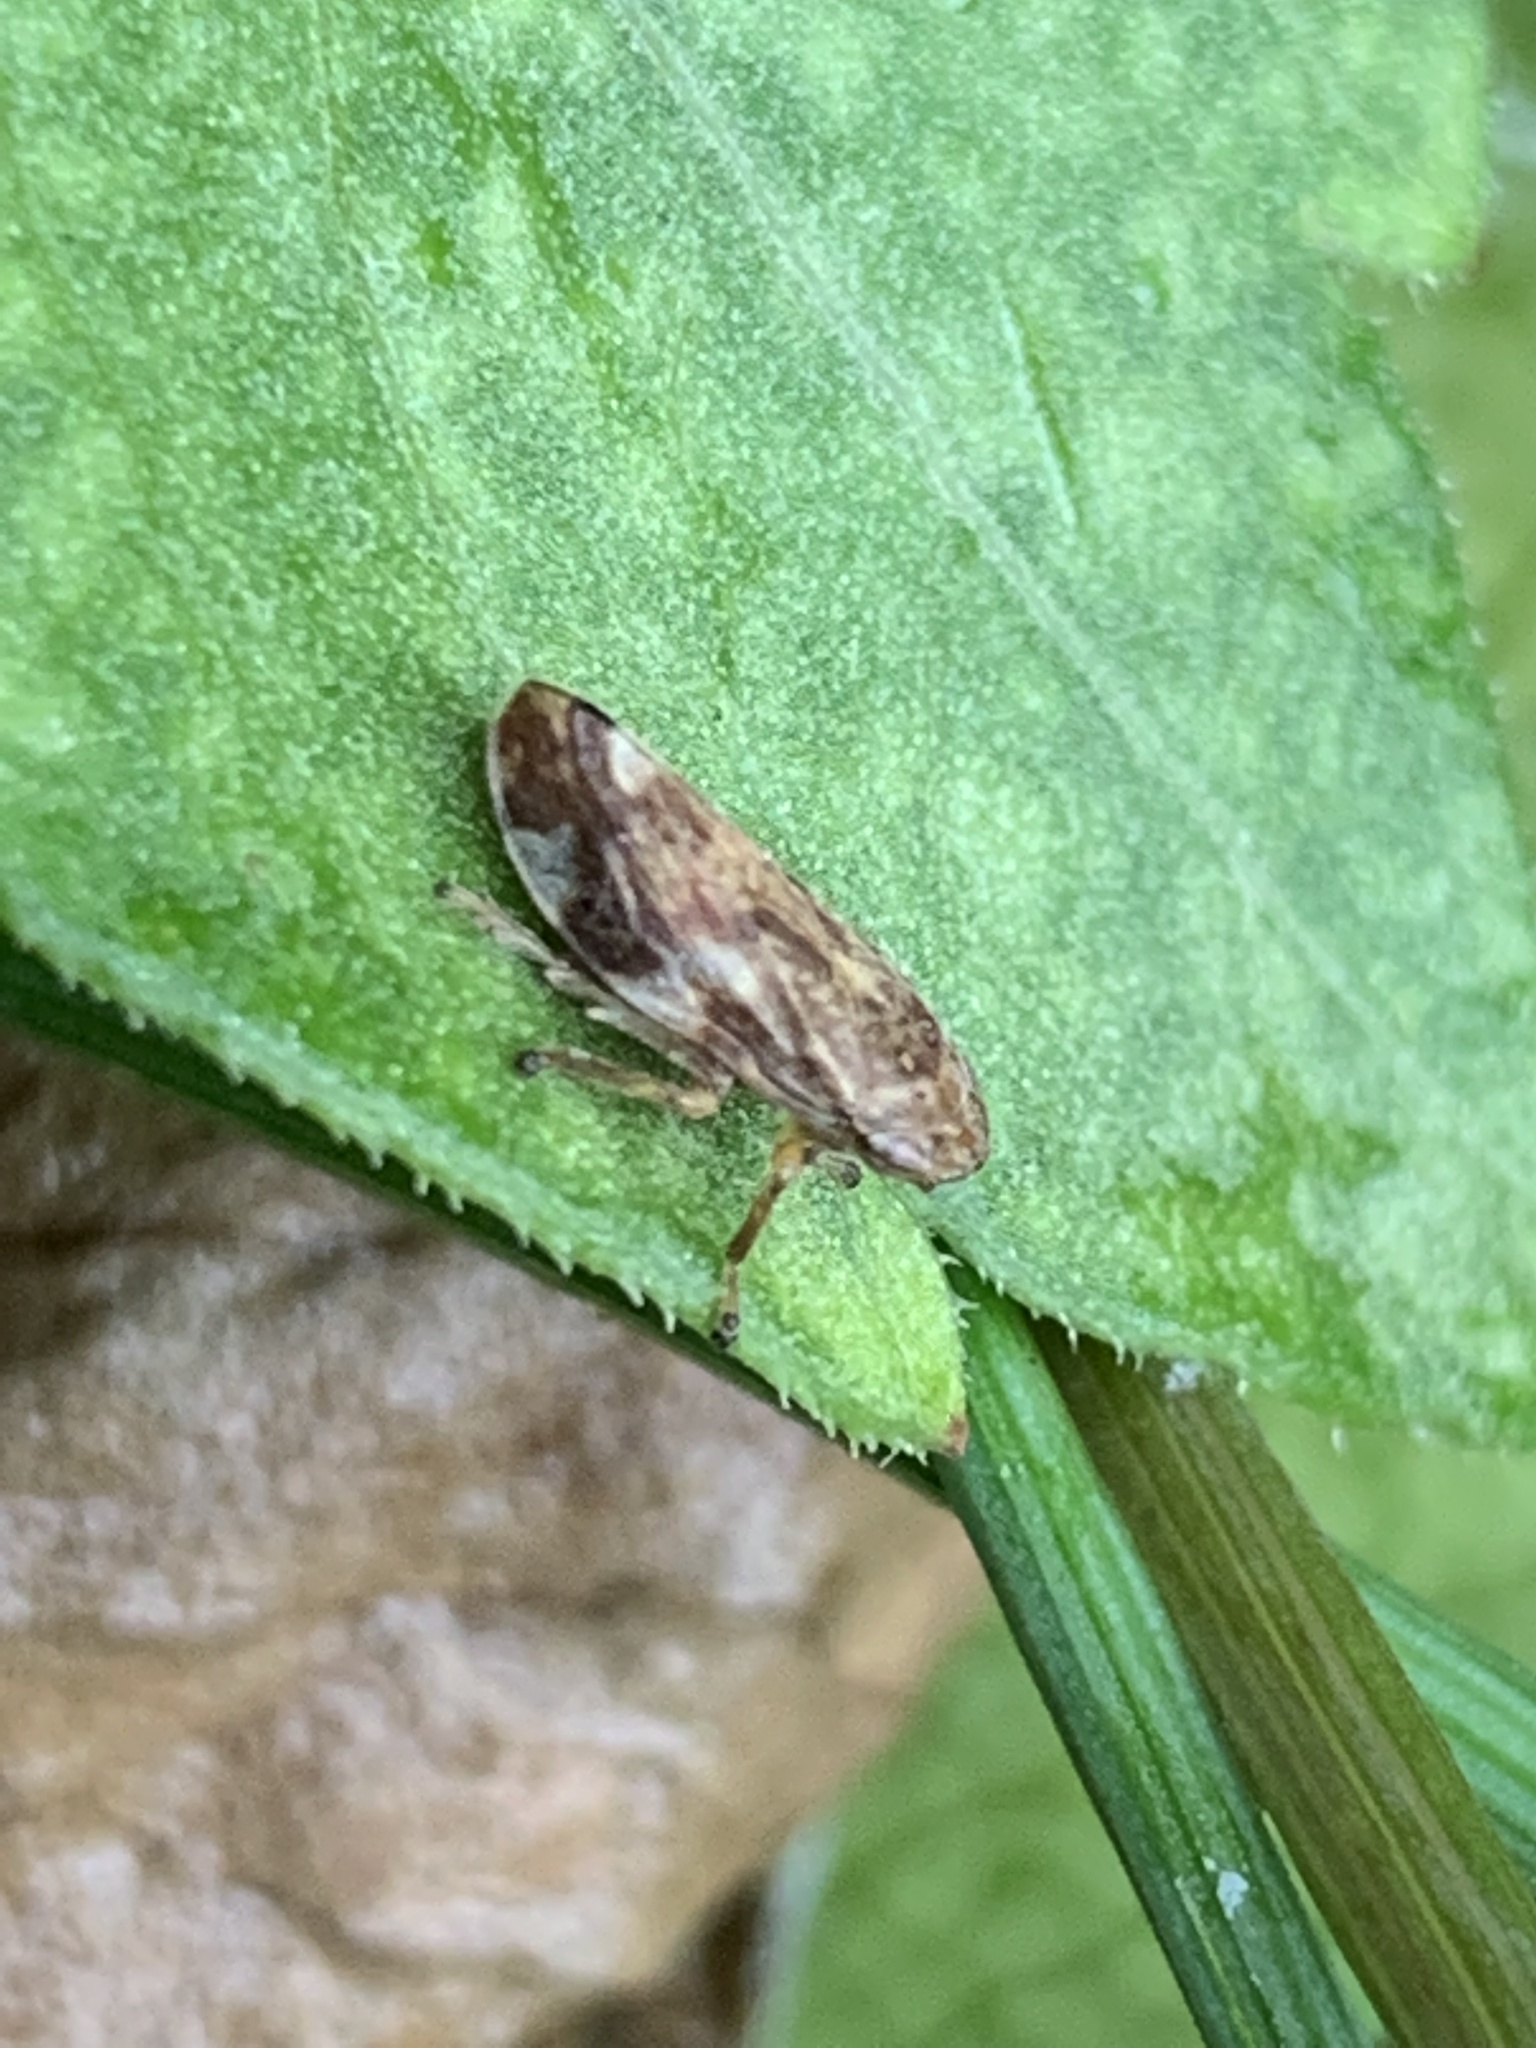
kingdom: Animalia
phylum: Arthropoda
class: Insecta
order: Hemiptera
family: Aphrophoridae
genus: Philaenus
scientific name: Philaenus spumarius
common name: Meadow spittlebug
